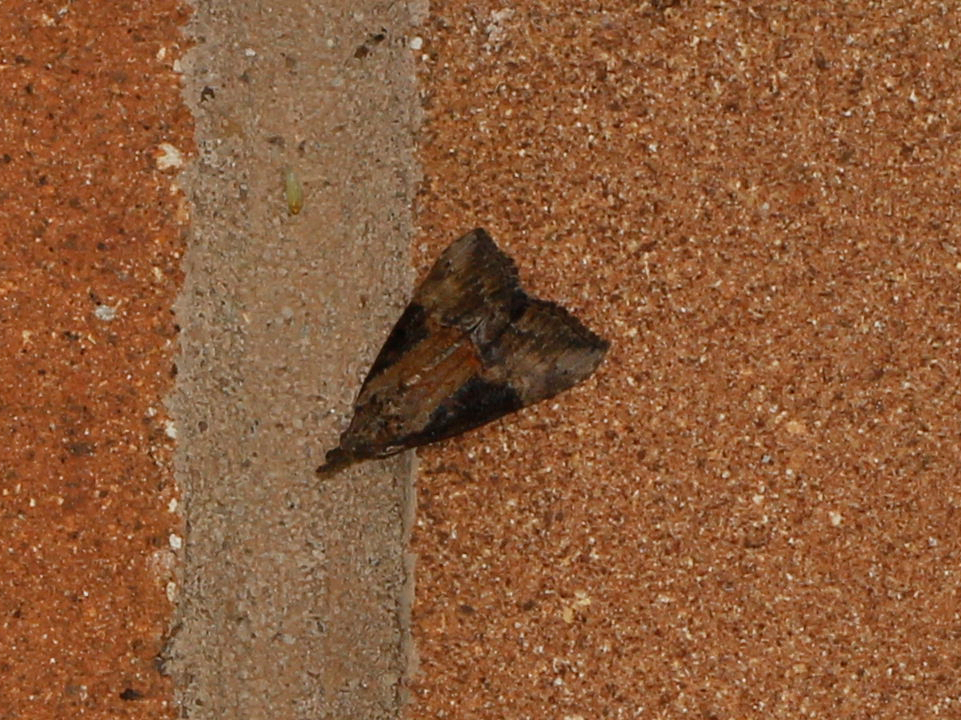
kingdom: Animalia
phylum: Arthropoda
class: Insecta
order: Lepidoptera
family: Erebidae
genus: Hypena
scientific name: Hypena scabra
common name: Green cloverworm
